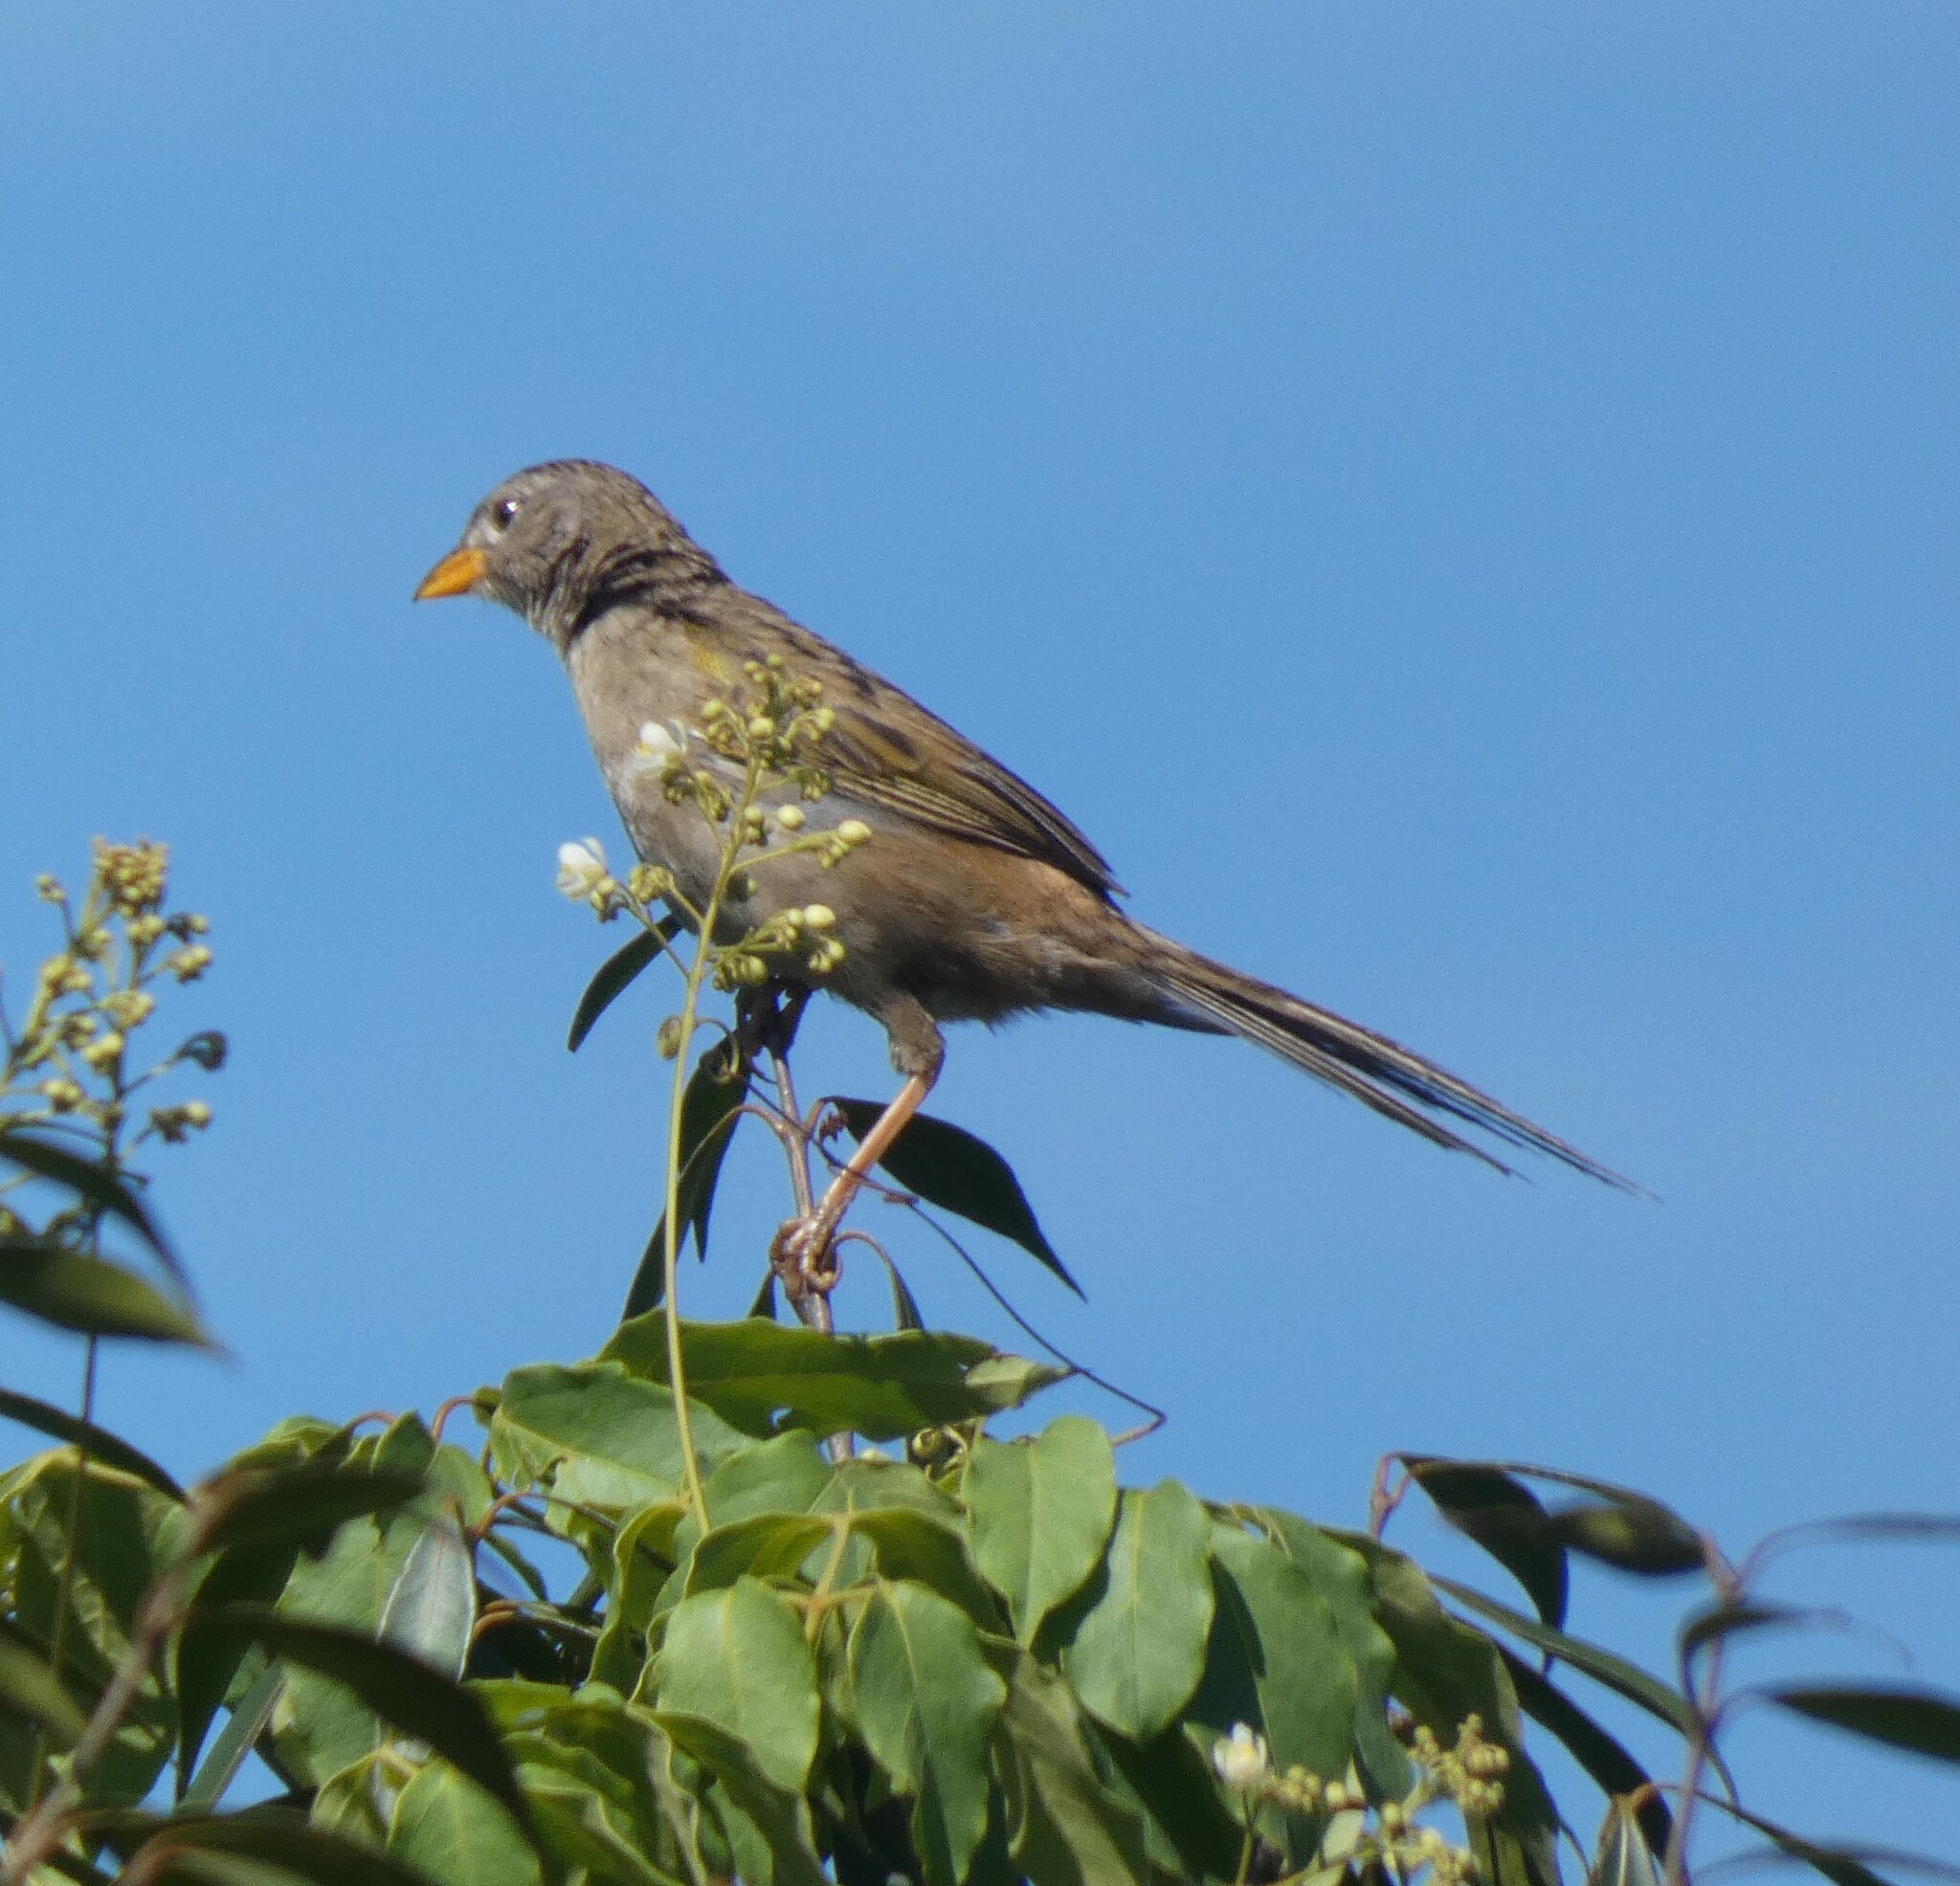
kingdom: Animalia
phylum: Chordata
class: Aves
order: Passeriformes
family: Thraupidae
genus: Emberizoides
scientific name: Emberizoides herbicola
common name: Wedge-tailed grass-finch
